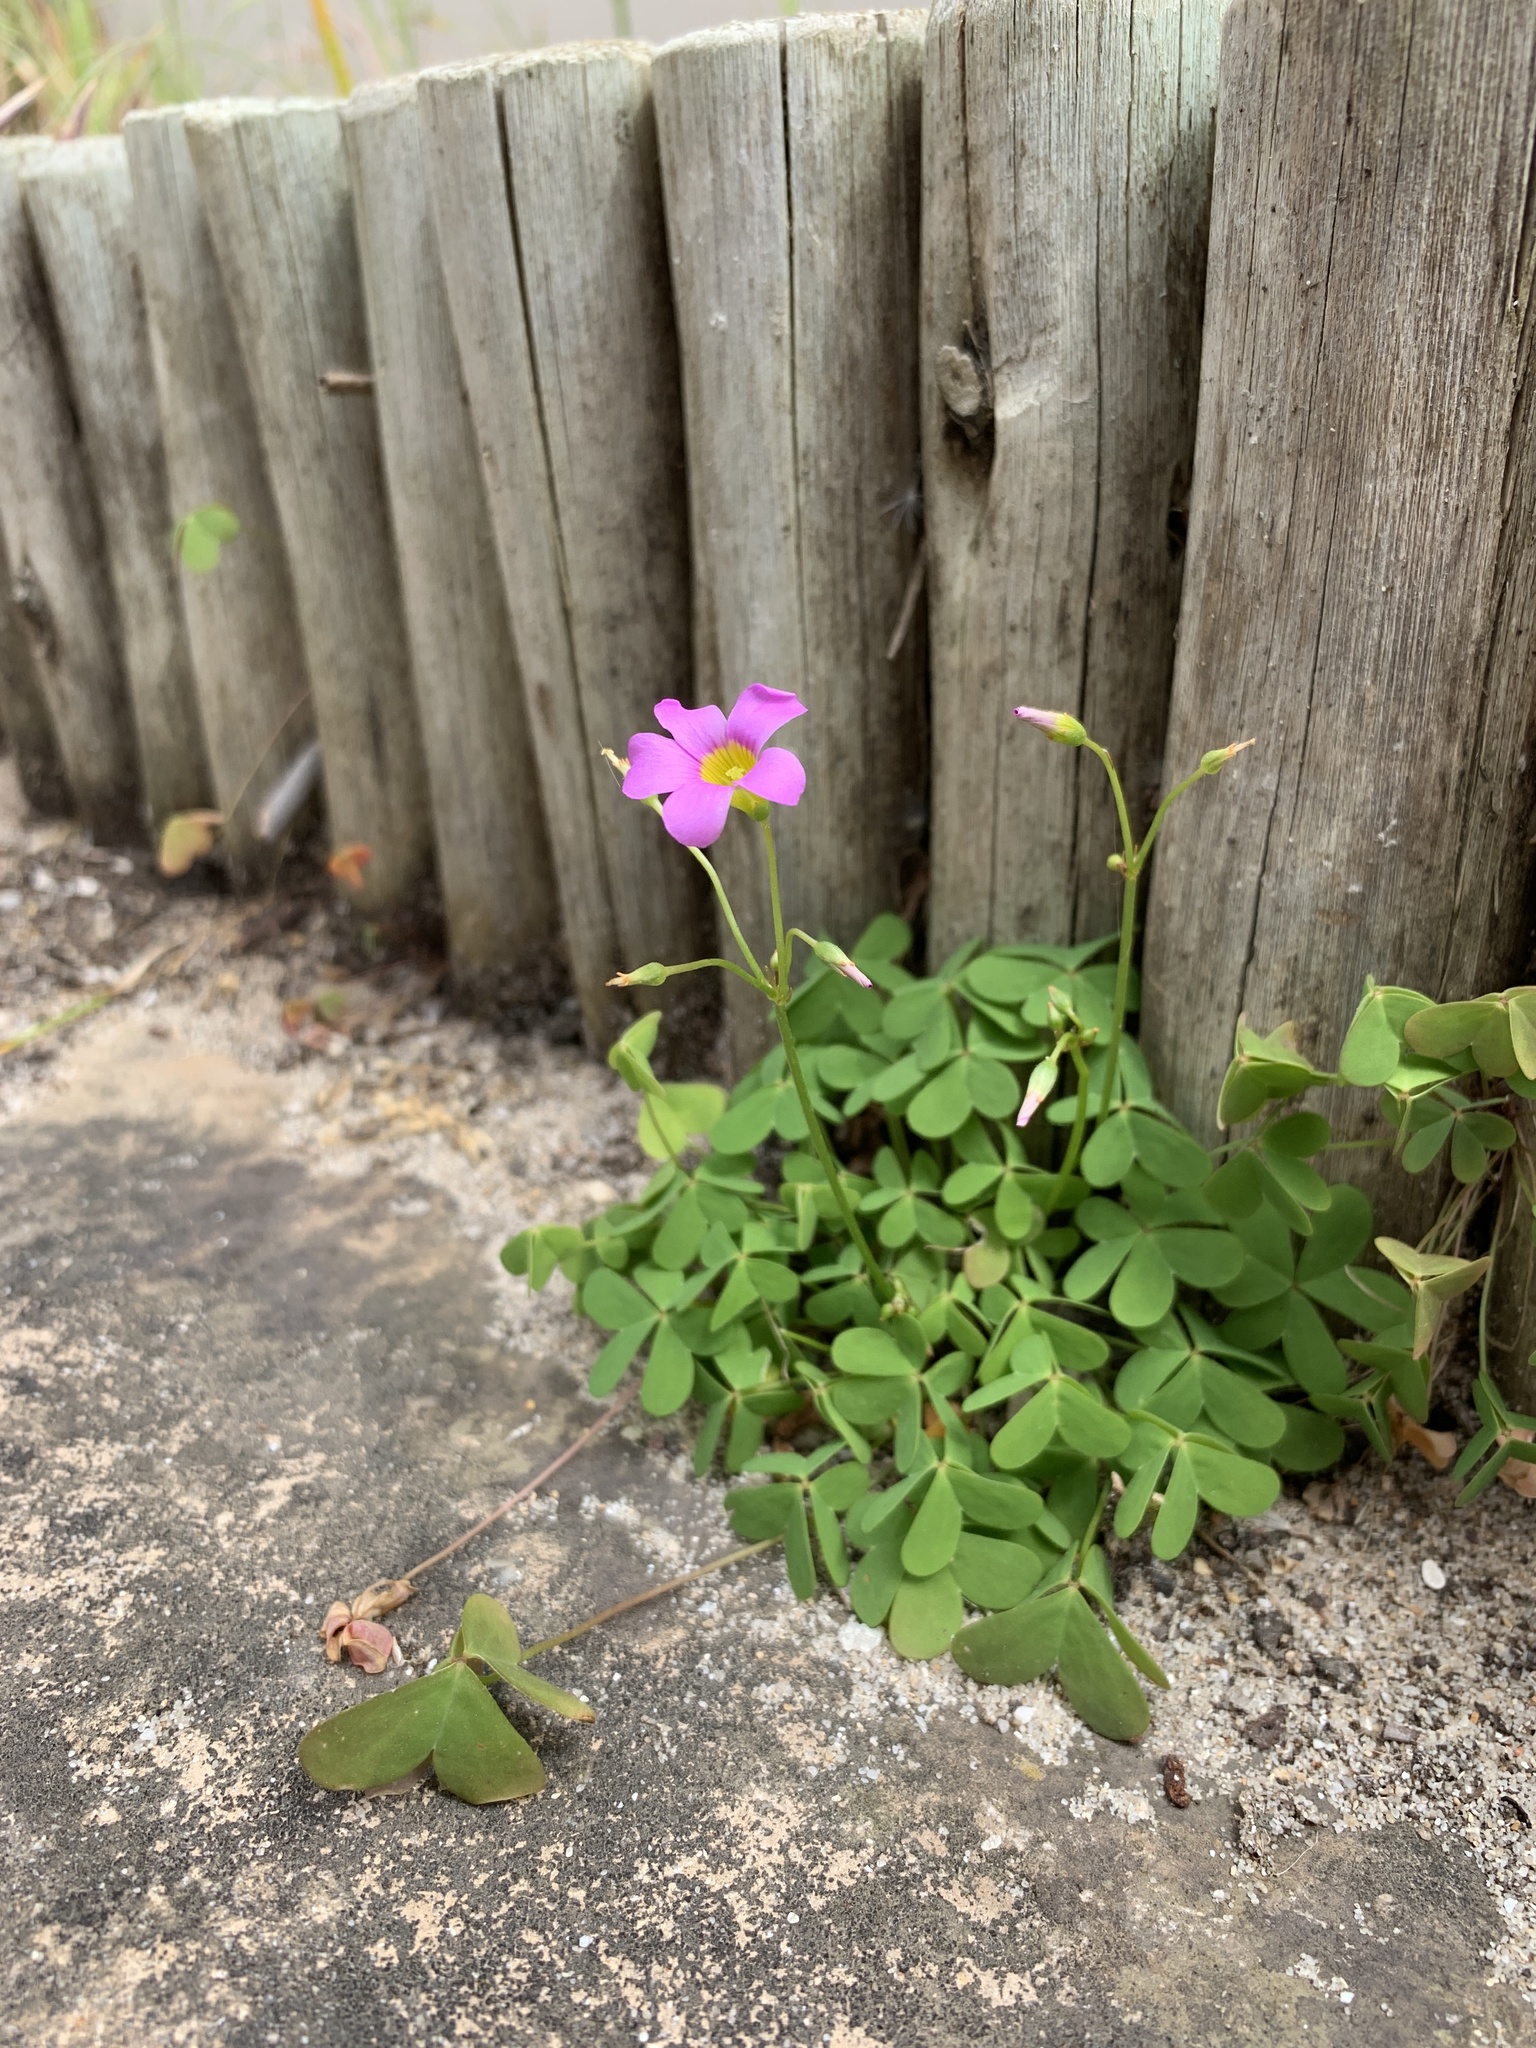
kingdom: Plantae
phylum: Tracheophyta
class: Magnoliopsida
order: Oxalidales
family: Oxalidaceae
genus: Oxalis
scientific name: Oxalis caprina
